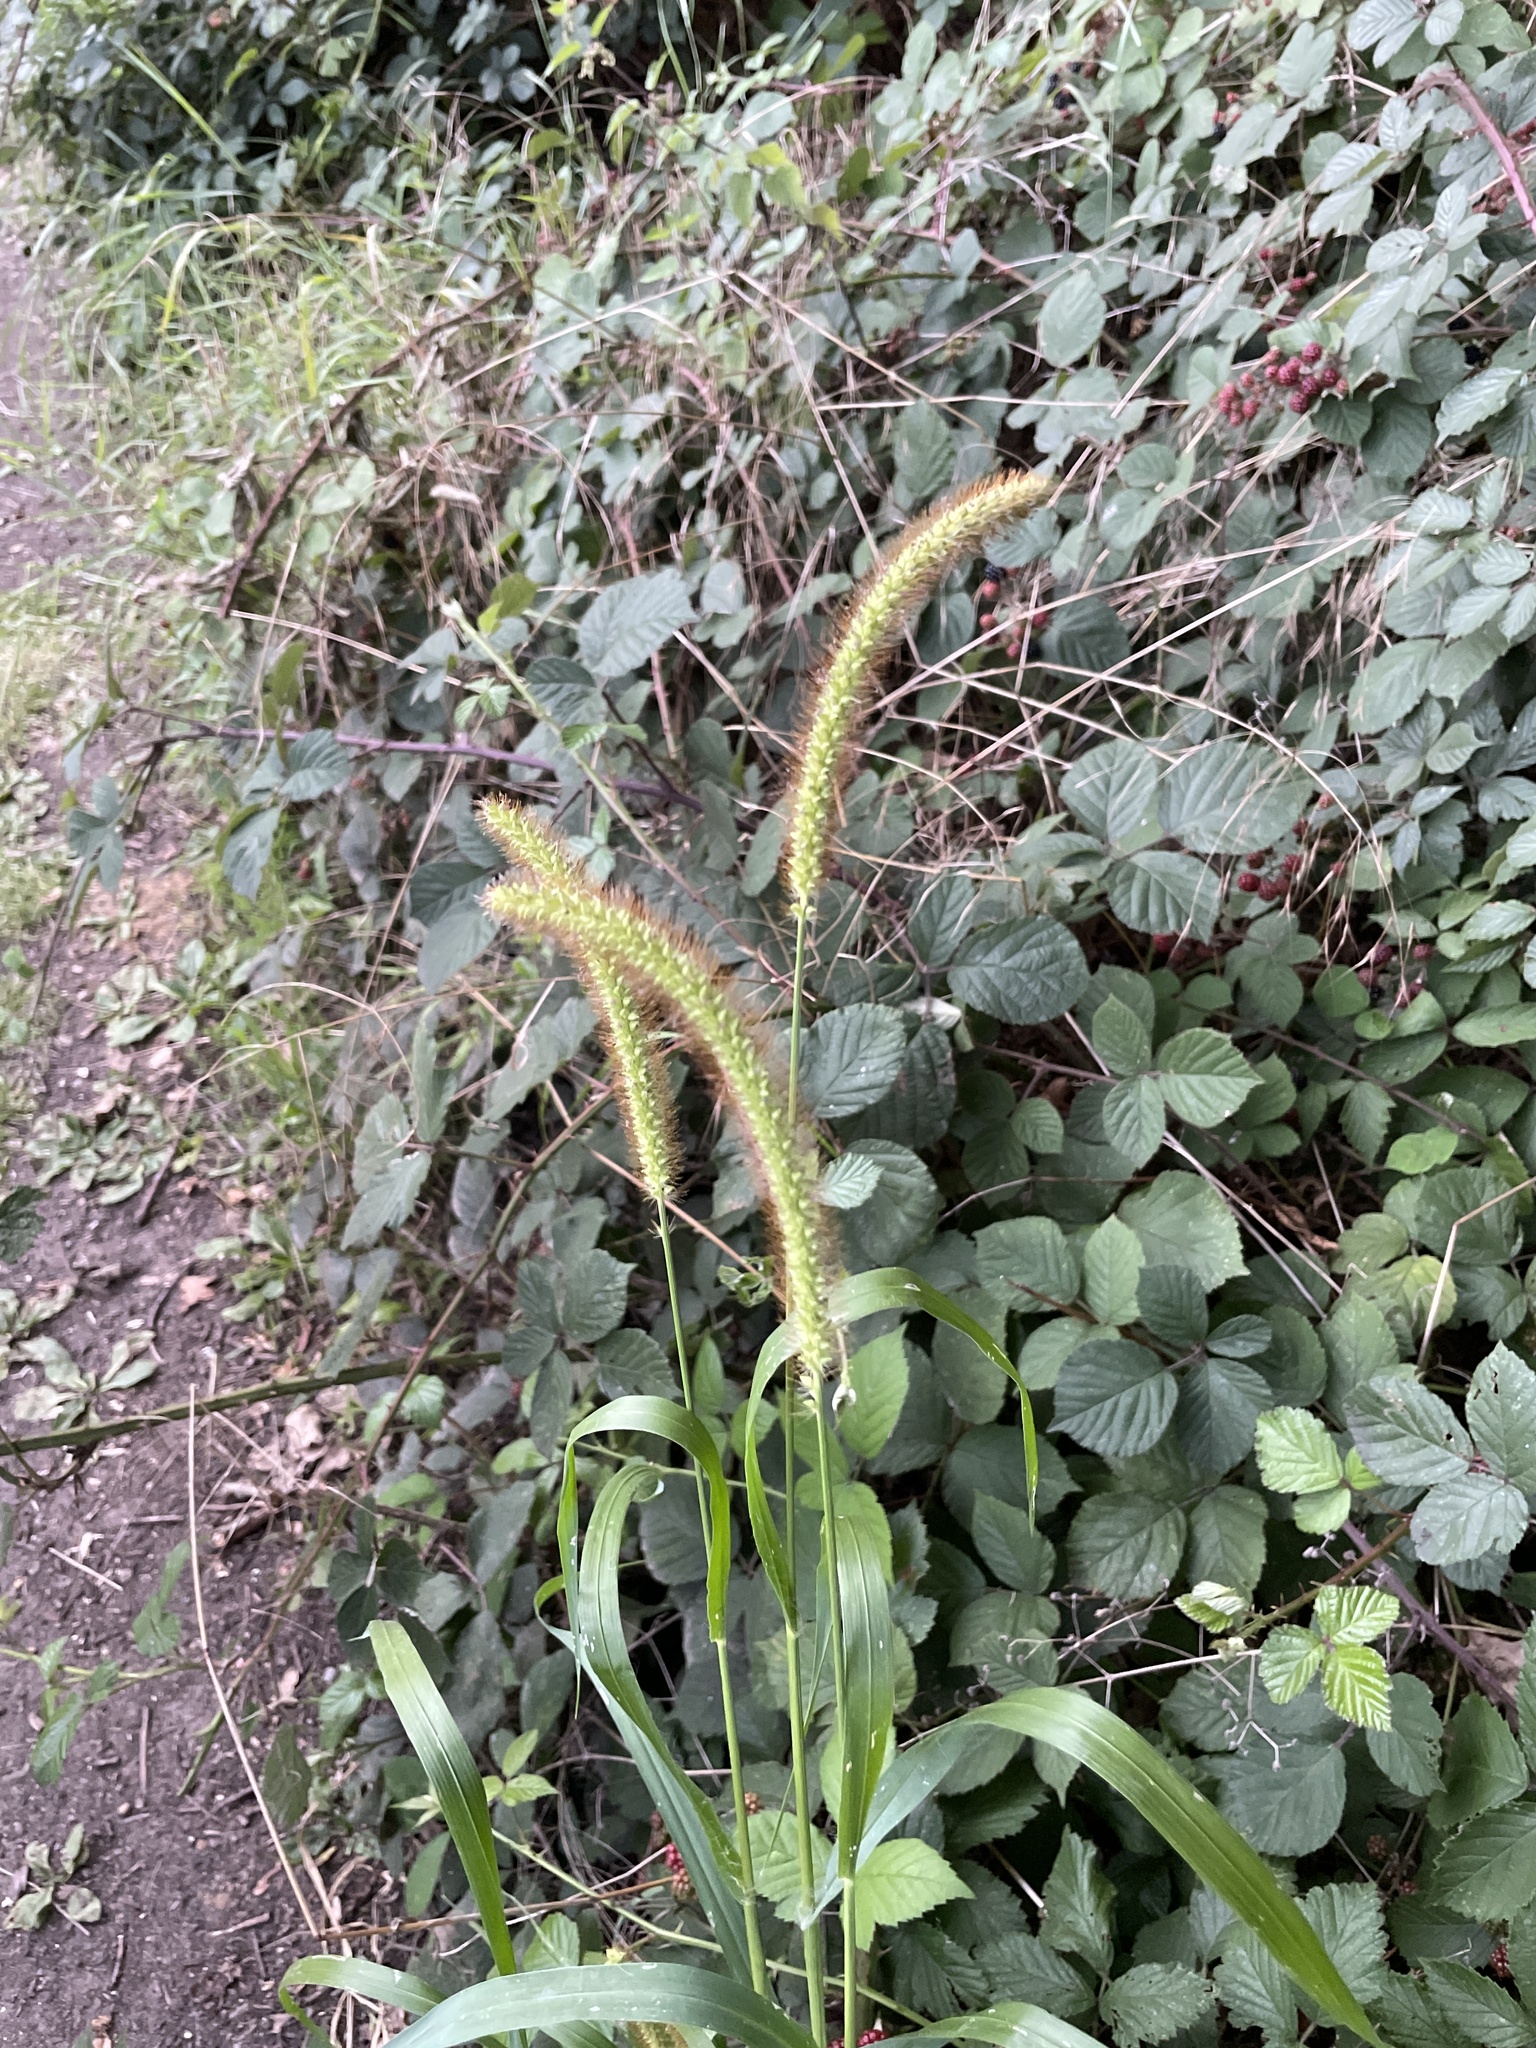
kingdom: Plantae
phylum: Tracheophyta
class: Liliopsida
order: Poales
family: Poaceae
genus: Setaria
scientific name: Setaria pumila
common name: Yellow bristle-grass
